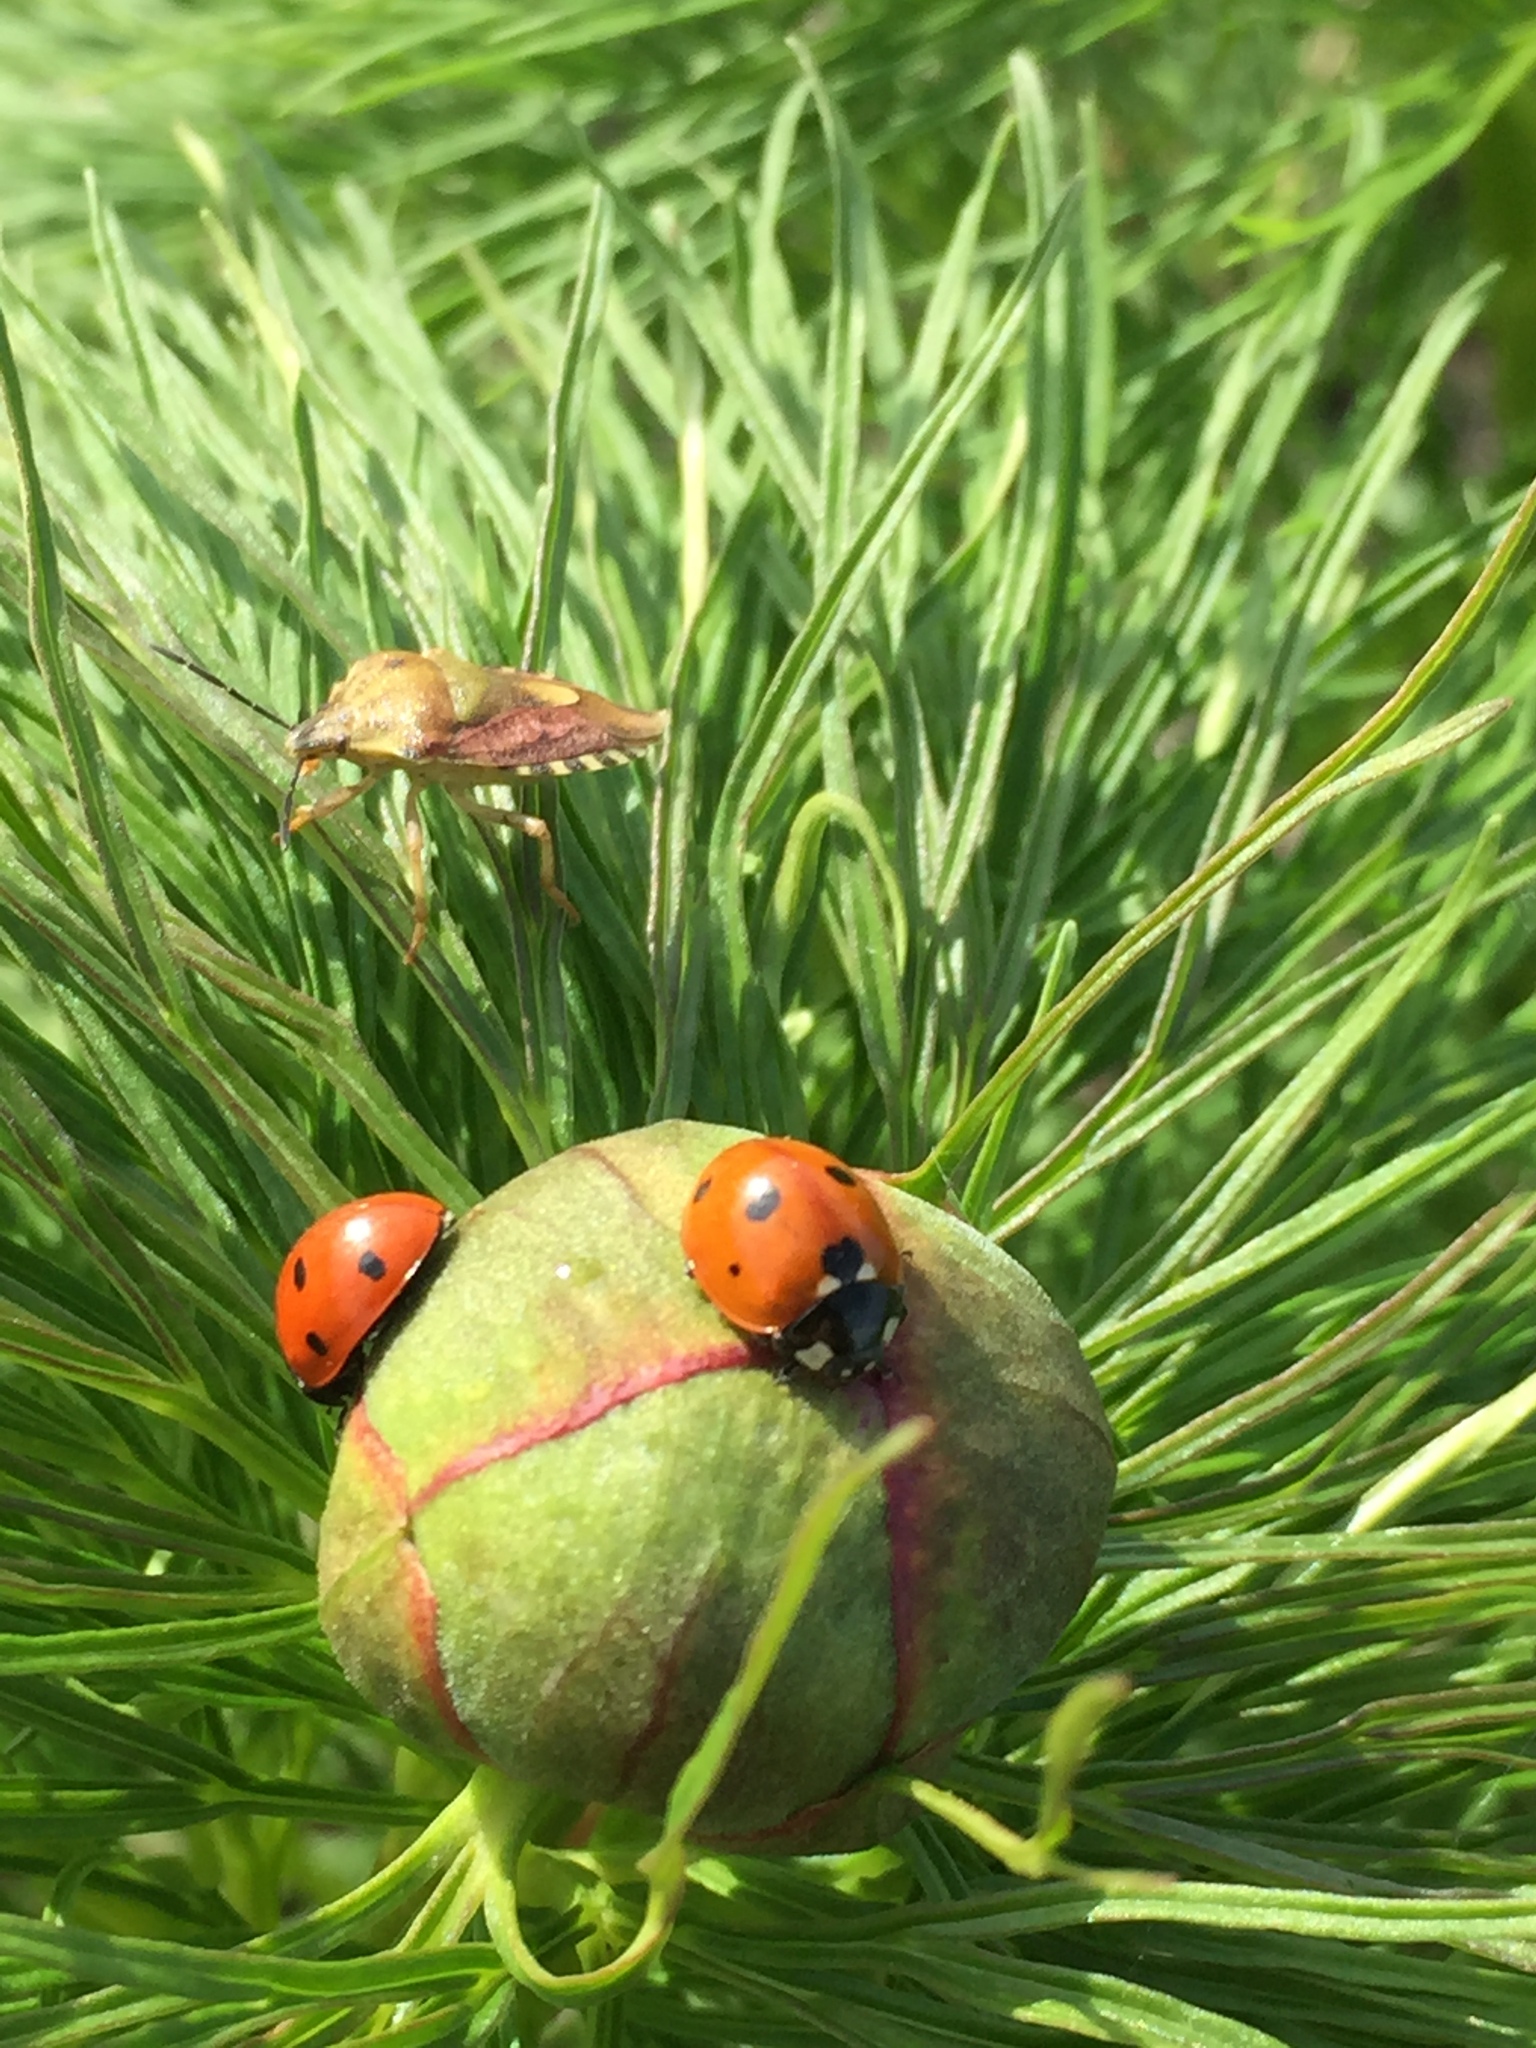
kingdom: Plantae
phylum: Tracheophyta
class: Magnoliopsida
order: Saxifragales
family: Paeoniaceae
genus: Paeonia
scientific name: Paeonia tenuifolia
